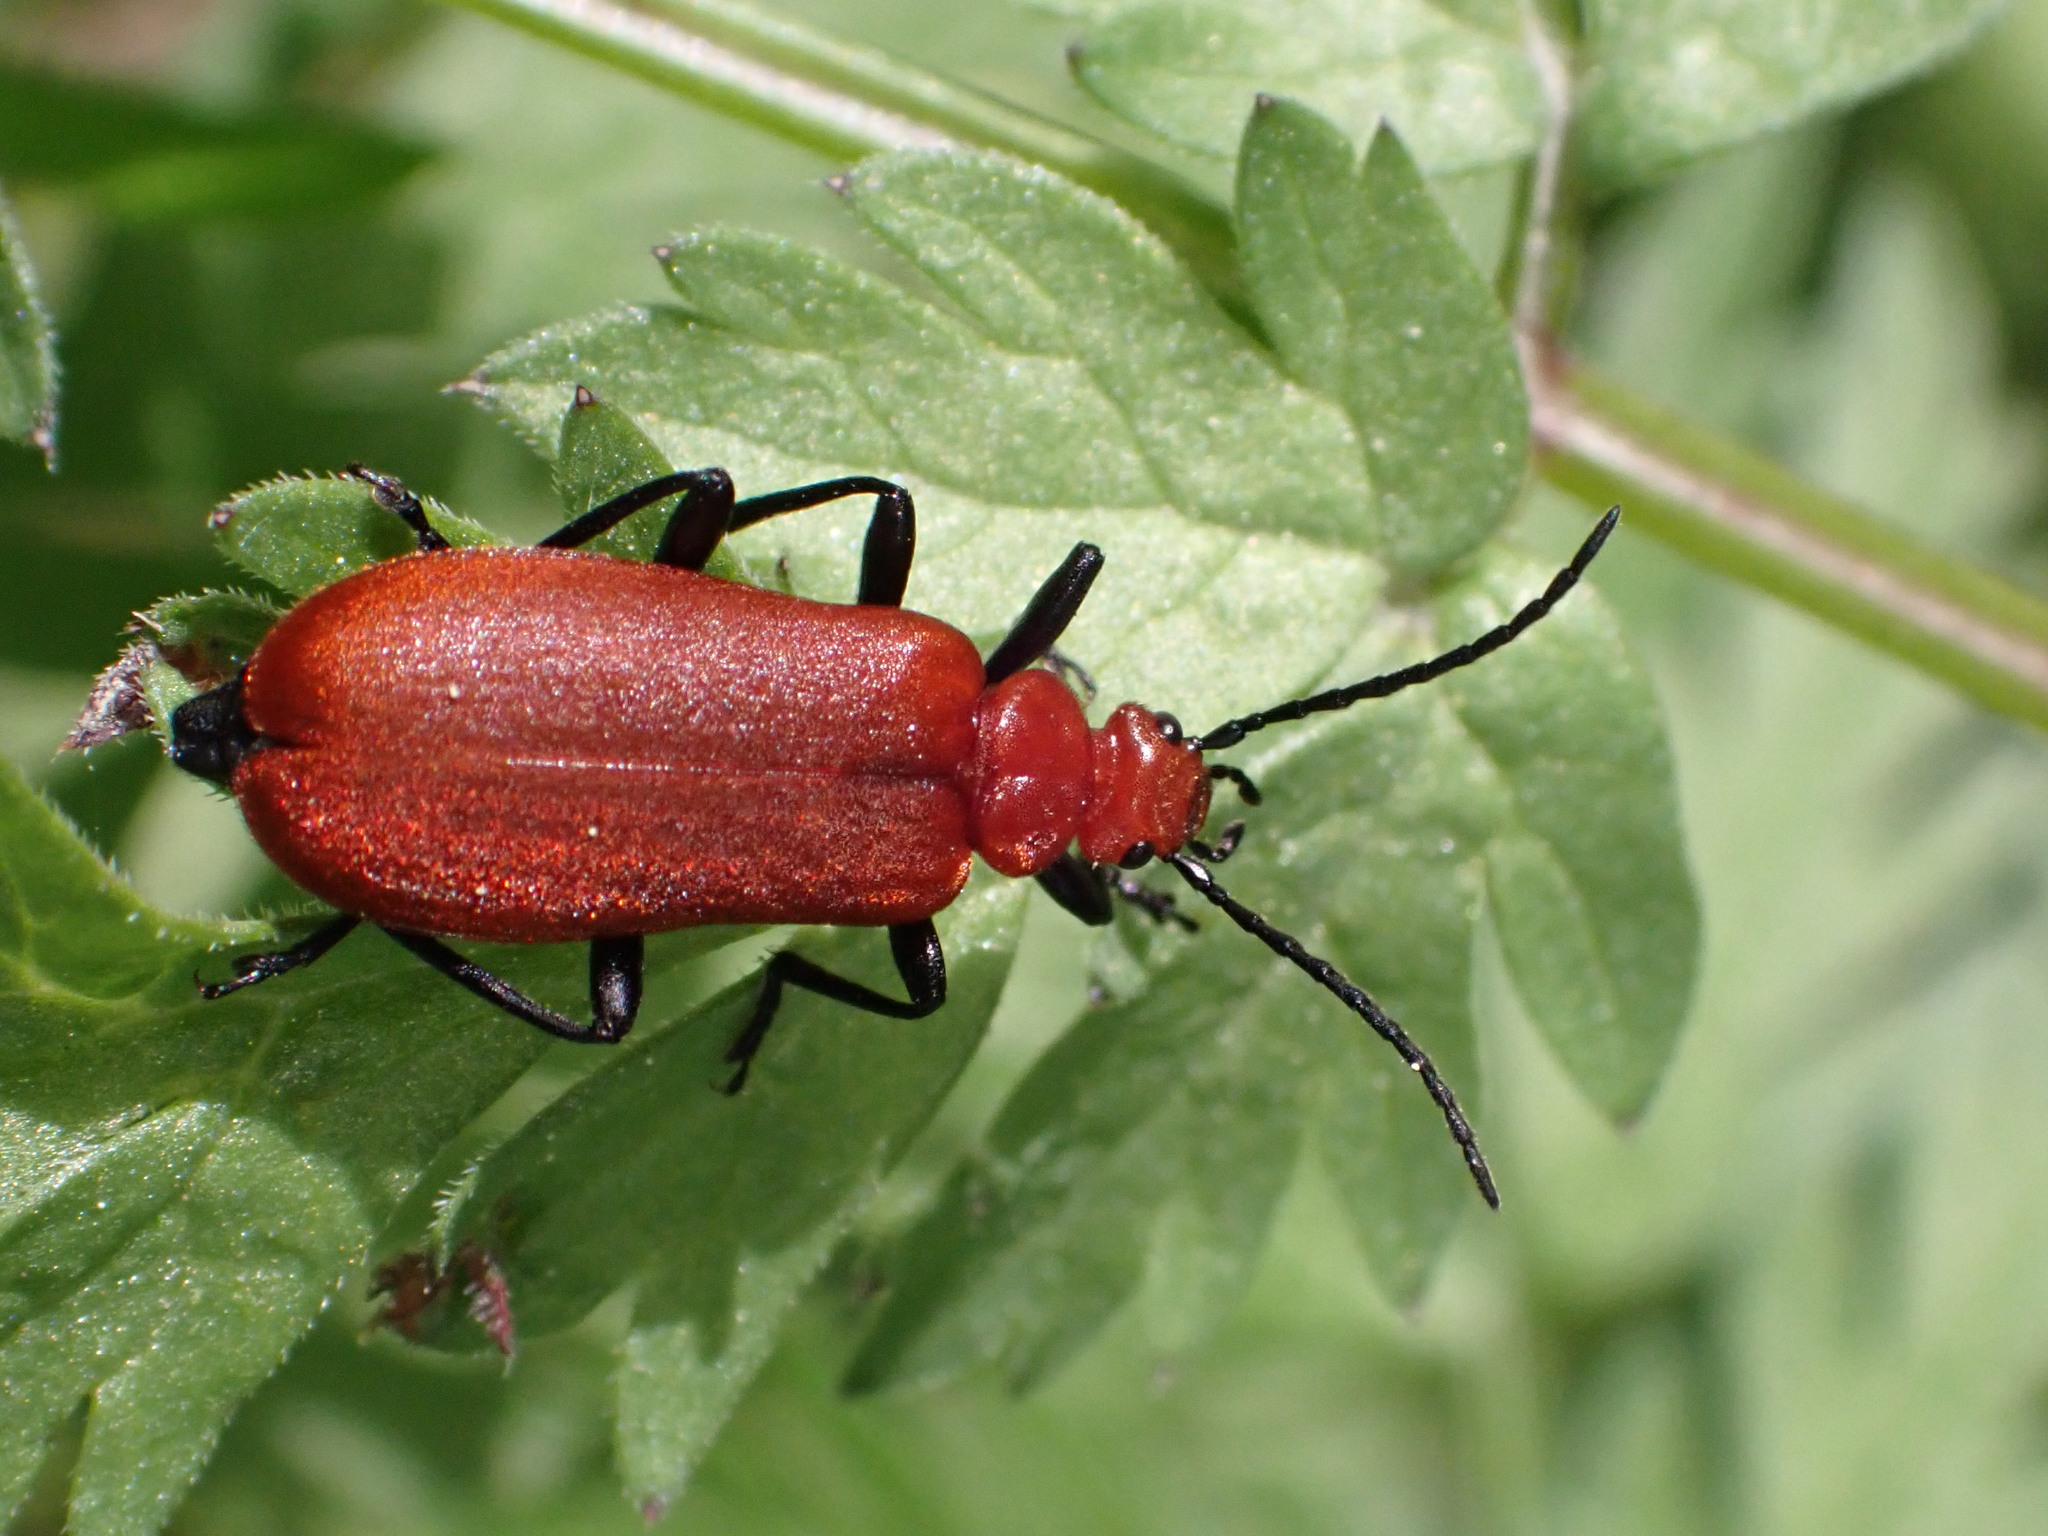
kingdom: Animalia
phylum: Arthropoda
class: Insecta
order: Coleoptera
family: Pyrochroidae
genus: Pyrochroa
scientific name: Pyrochroa serraticornis
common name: Red-headed cardinal beetle
